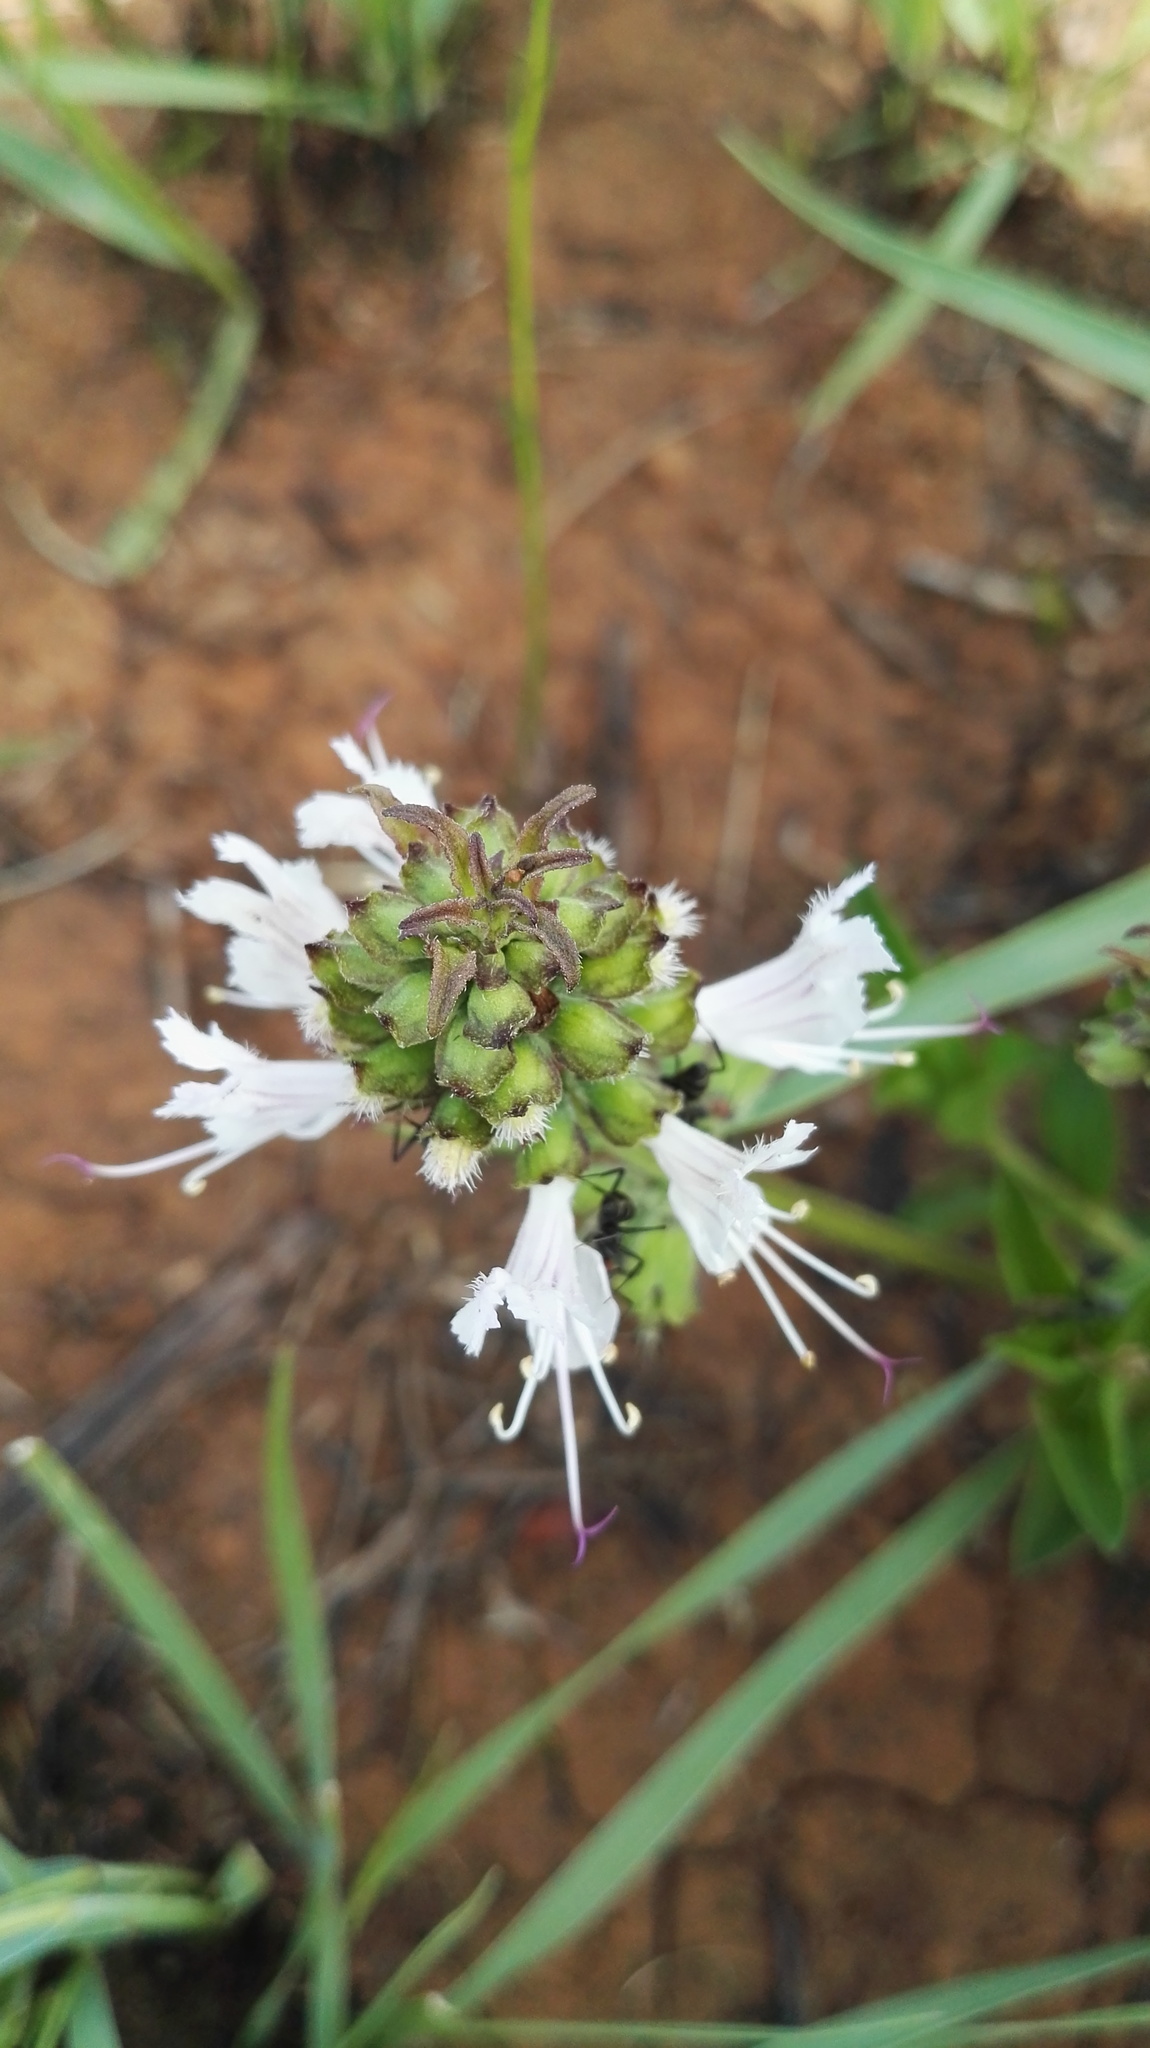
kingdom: Plantae
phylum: Tracheophyta
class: Magnoliopsida
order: Lamiales
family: Lamiaceae
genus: Ocimum
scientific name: Ocimum obovatum
